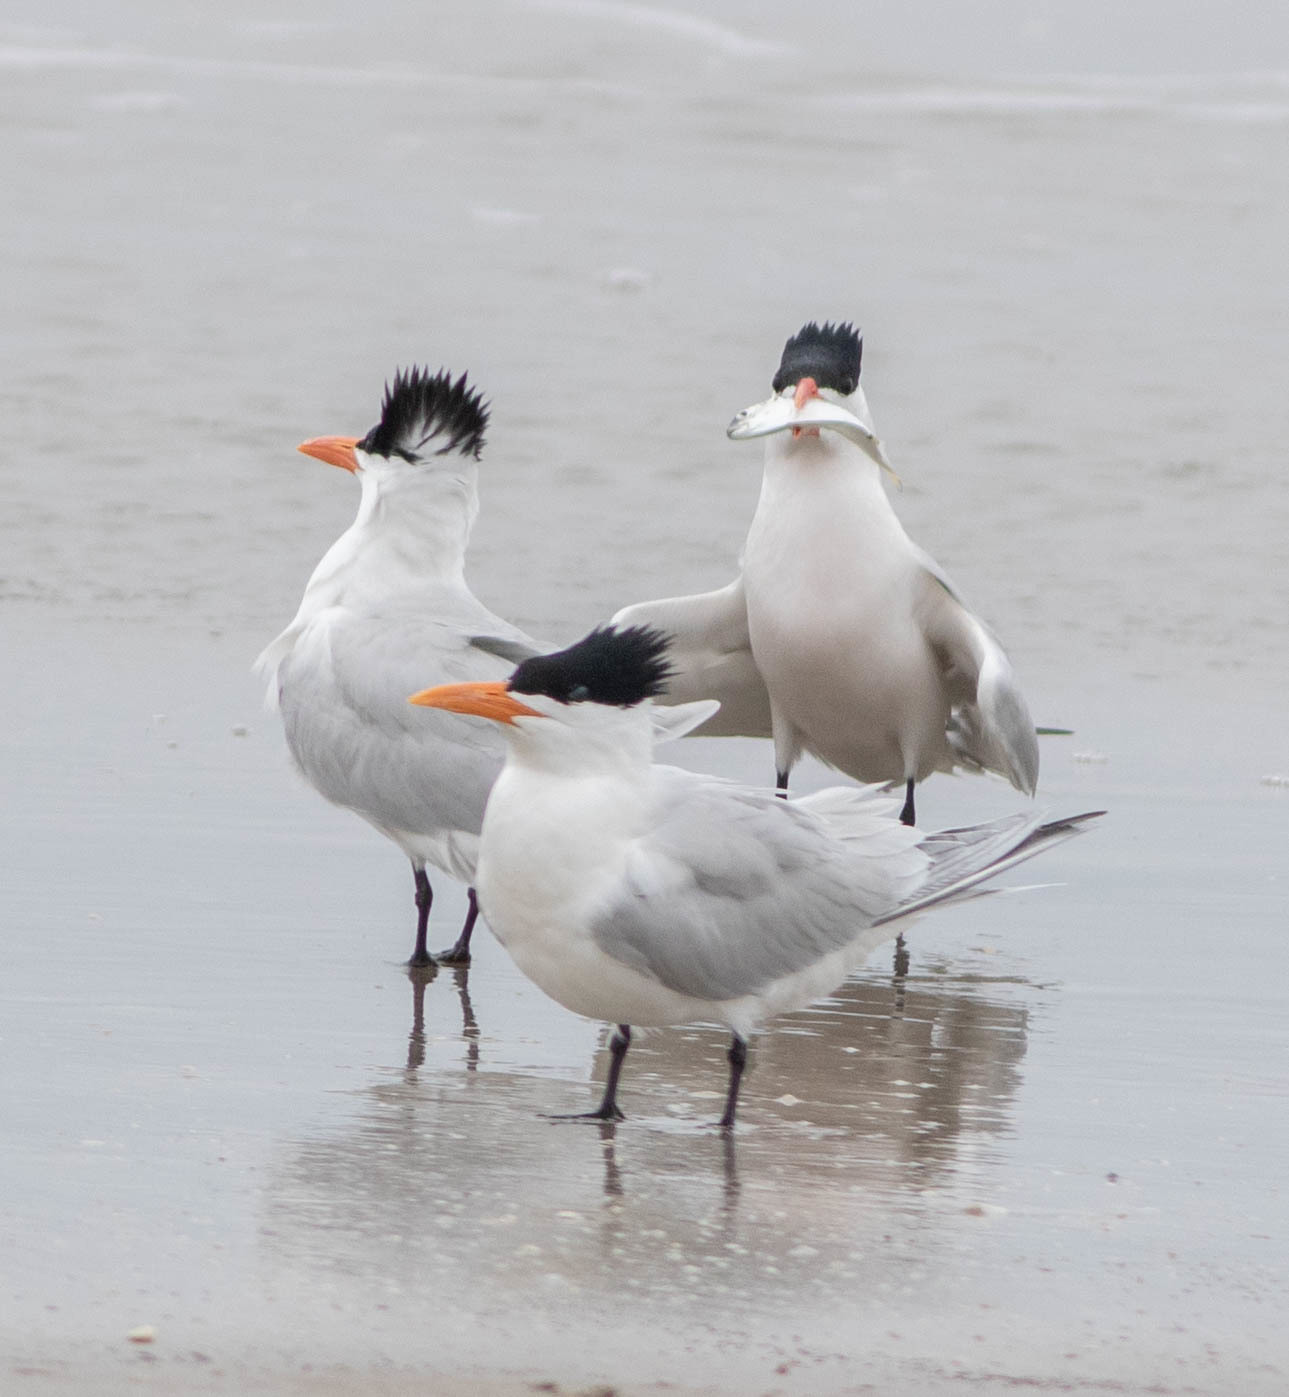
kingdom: Animalia
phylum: Chordata
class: Aves
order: Charadriiformes
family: Laridae
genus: Thalasseus
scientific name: Thalasseus maximus
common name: Royal tern
